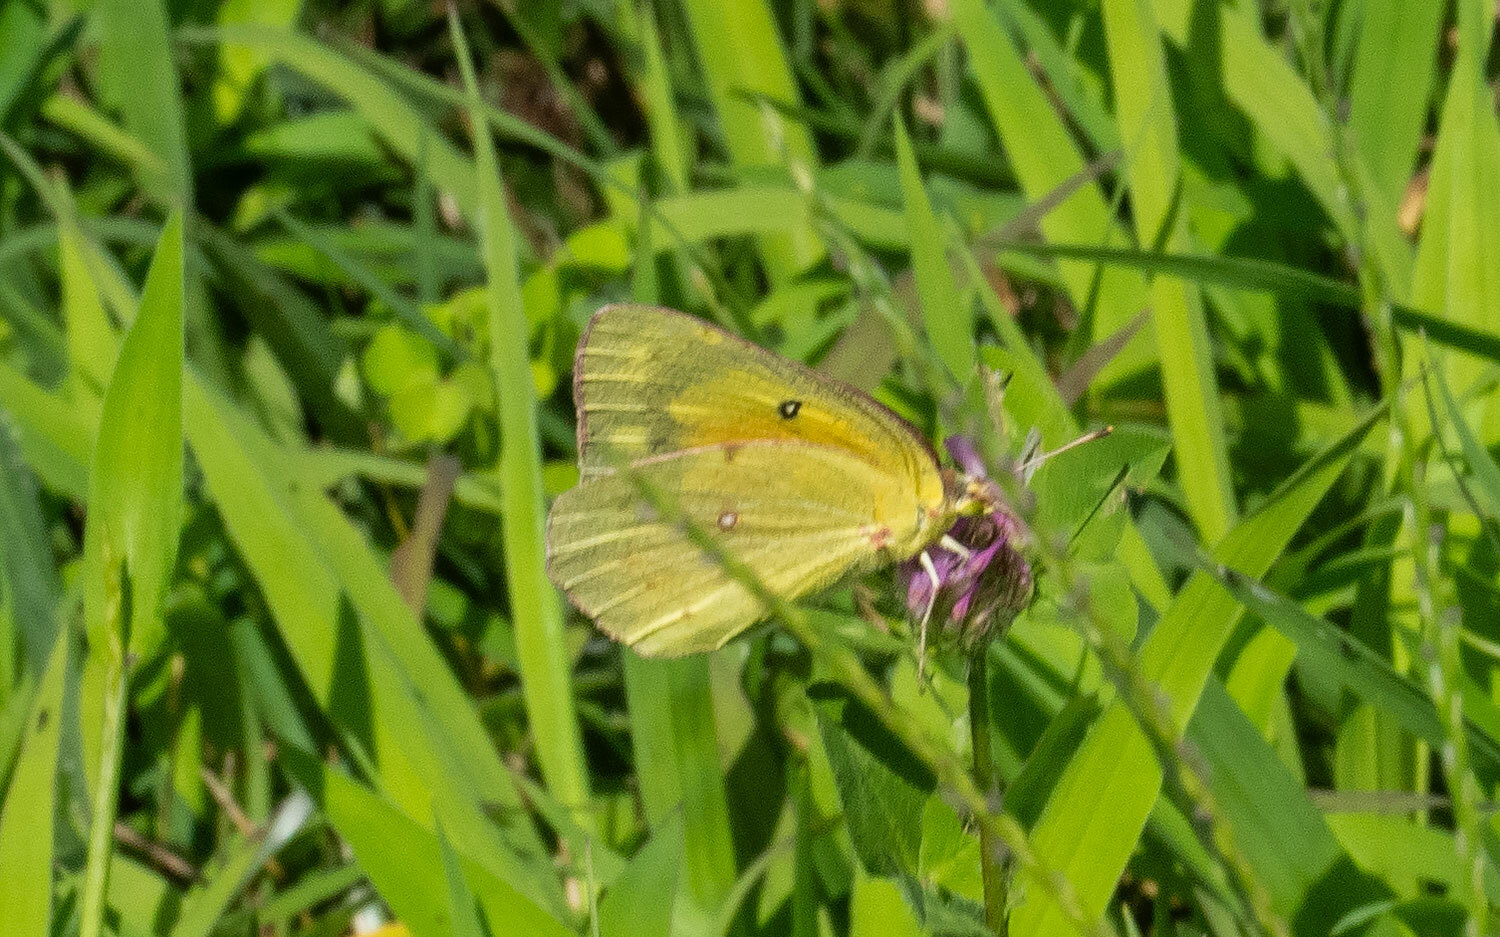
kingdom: Animalia
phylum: Arthropoda
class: Insecta
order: Lepidoptera
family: Pieridae
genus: Colias
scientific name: Colias eurytheme
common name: Alfalfa butterfly
